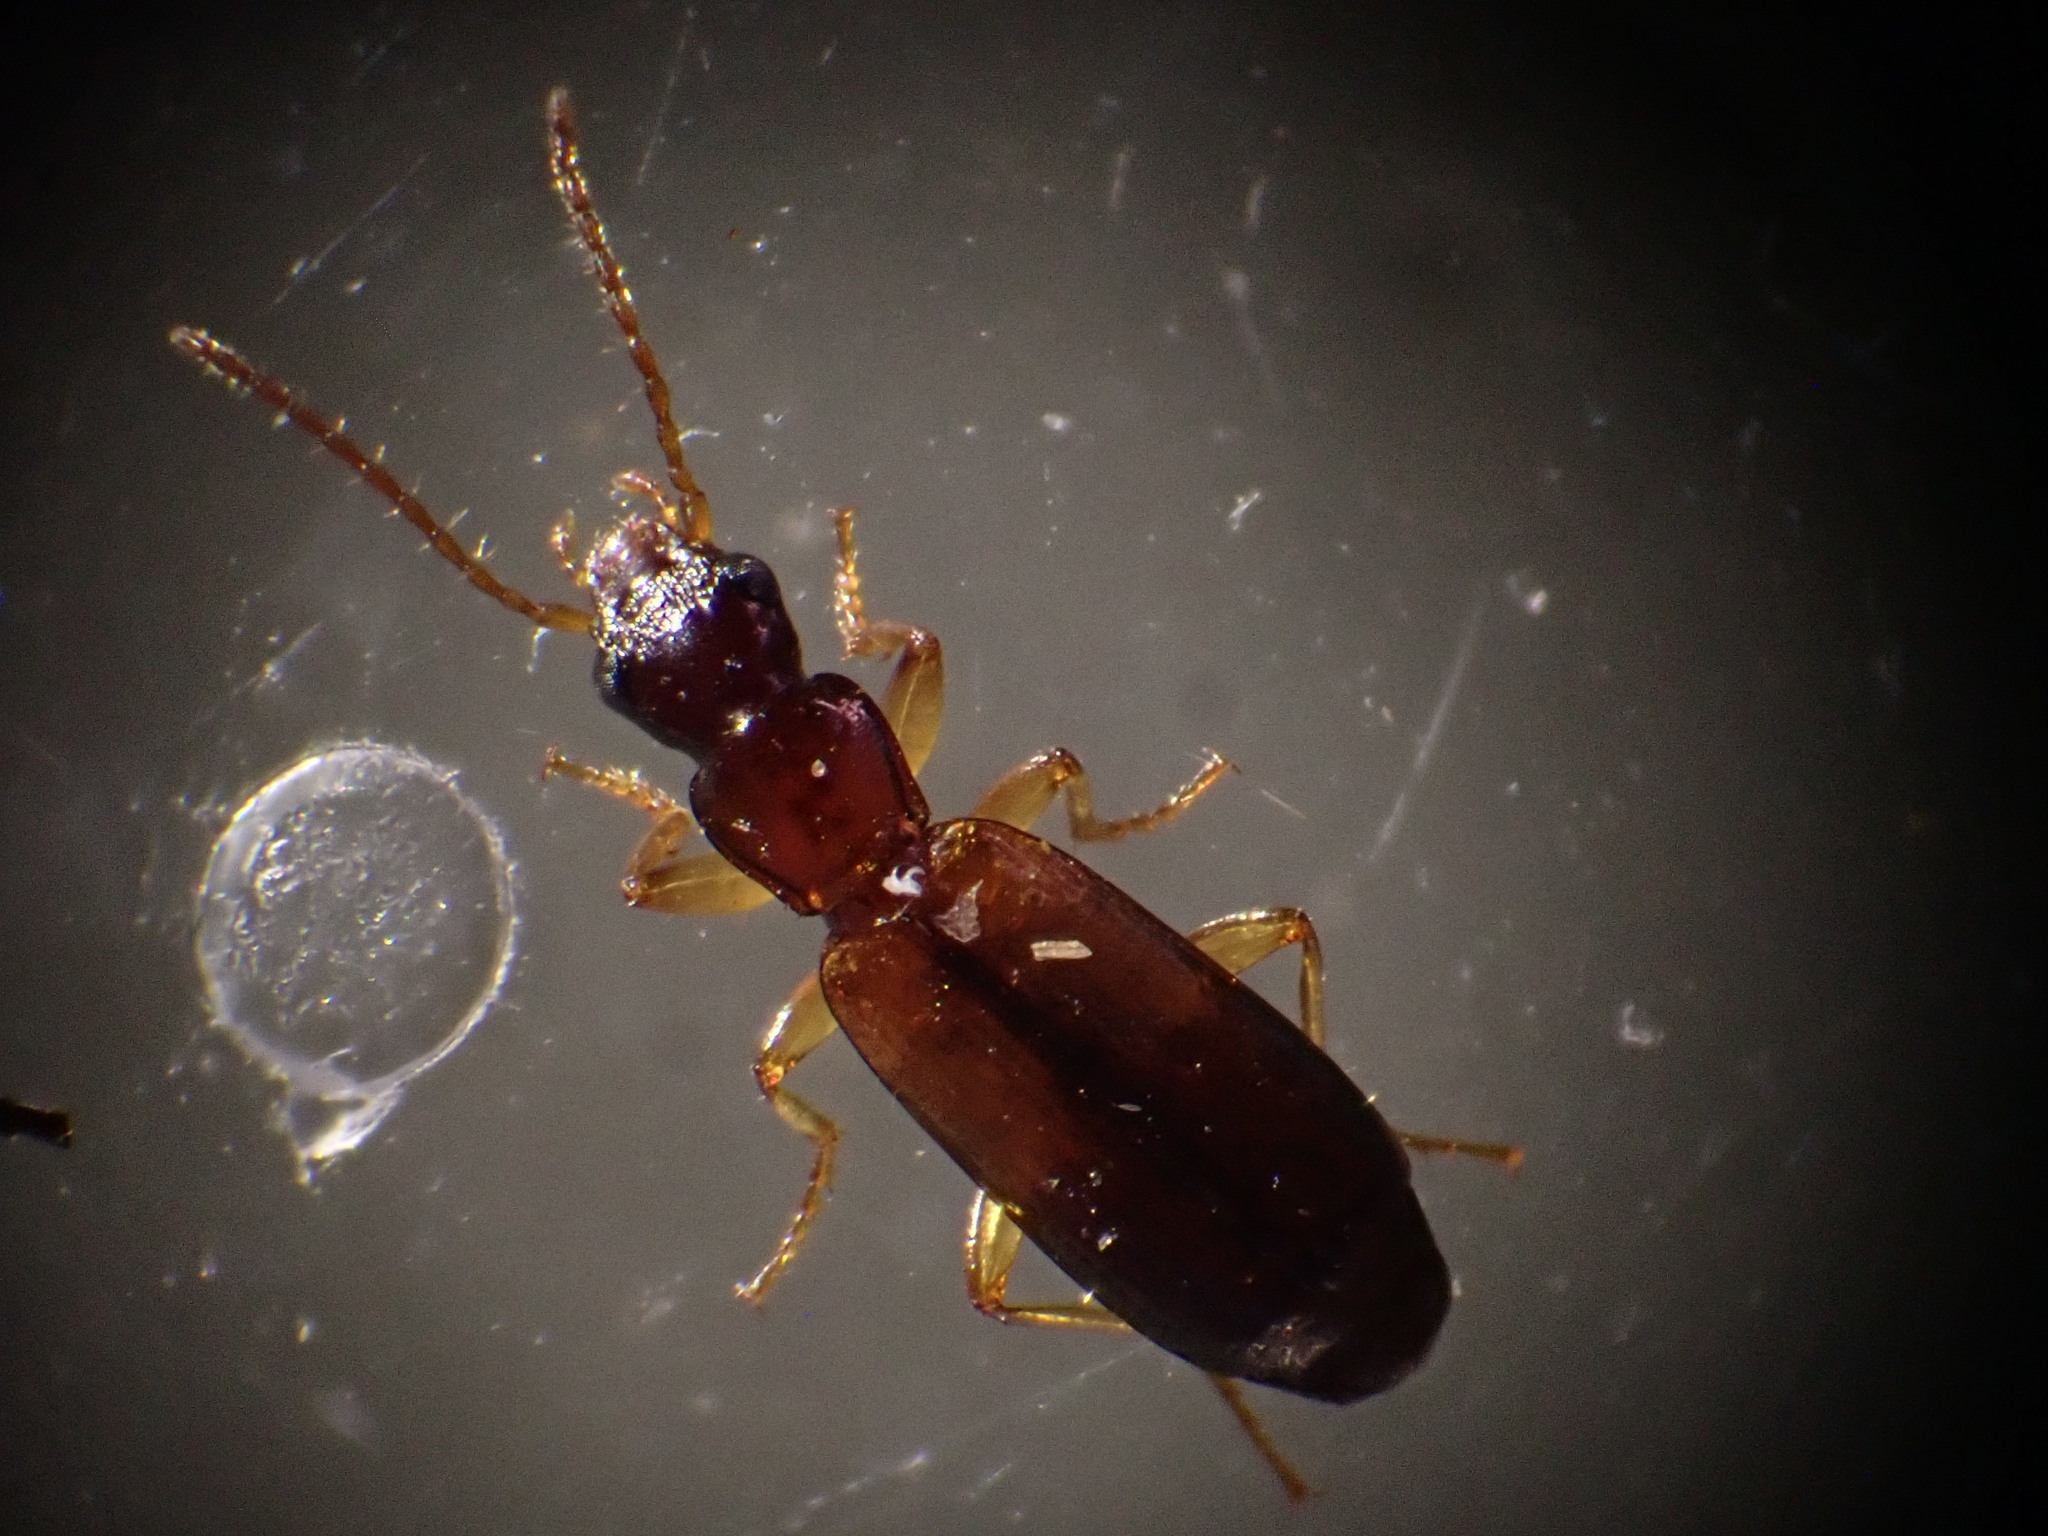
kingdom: Animalia
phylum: Arthropoda
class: Insecta
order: Coleoptera
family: Carabidae
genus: Paradromius
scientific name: Paradromius linearis
